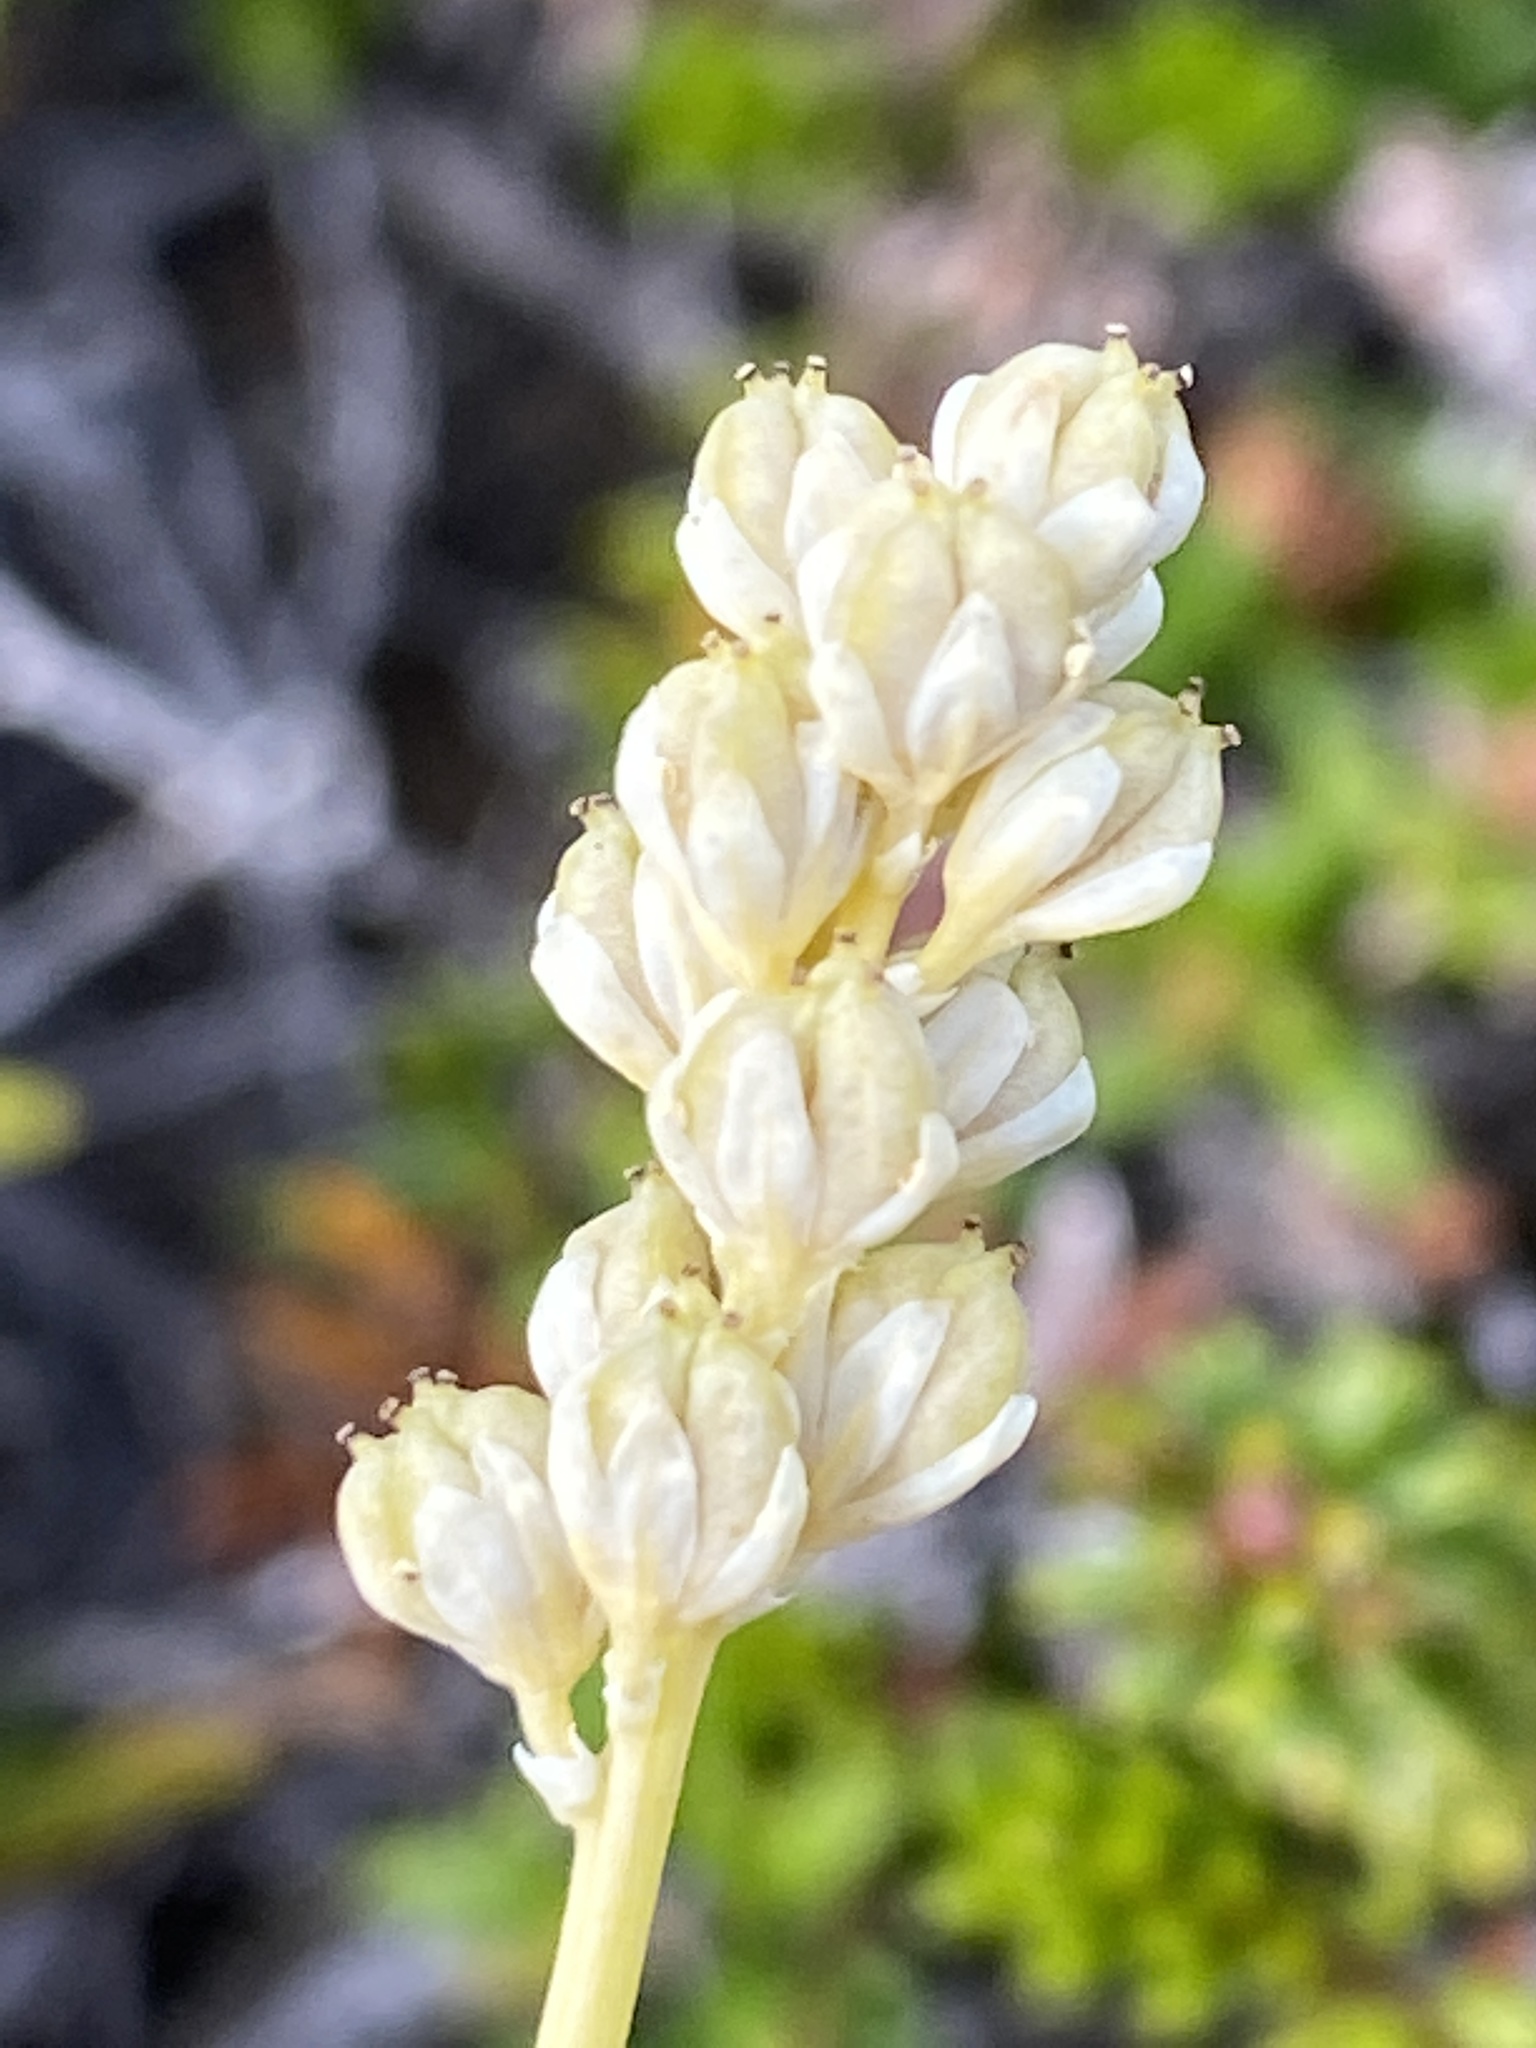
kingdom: Plantae
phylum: Tracheophyta
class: Liliopsida
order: Alismatales
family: Tofieldiaceae
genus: Tofieldia
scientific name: Tofieldia pusilla
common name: Scottish false asphodel
